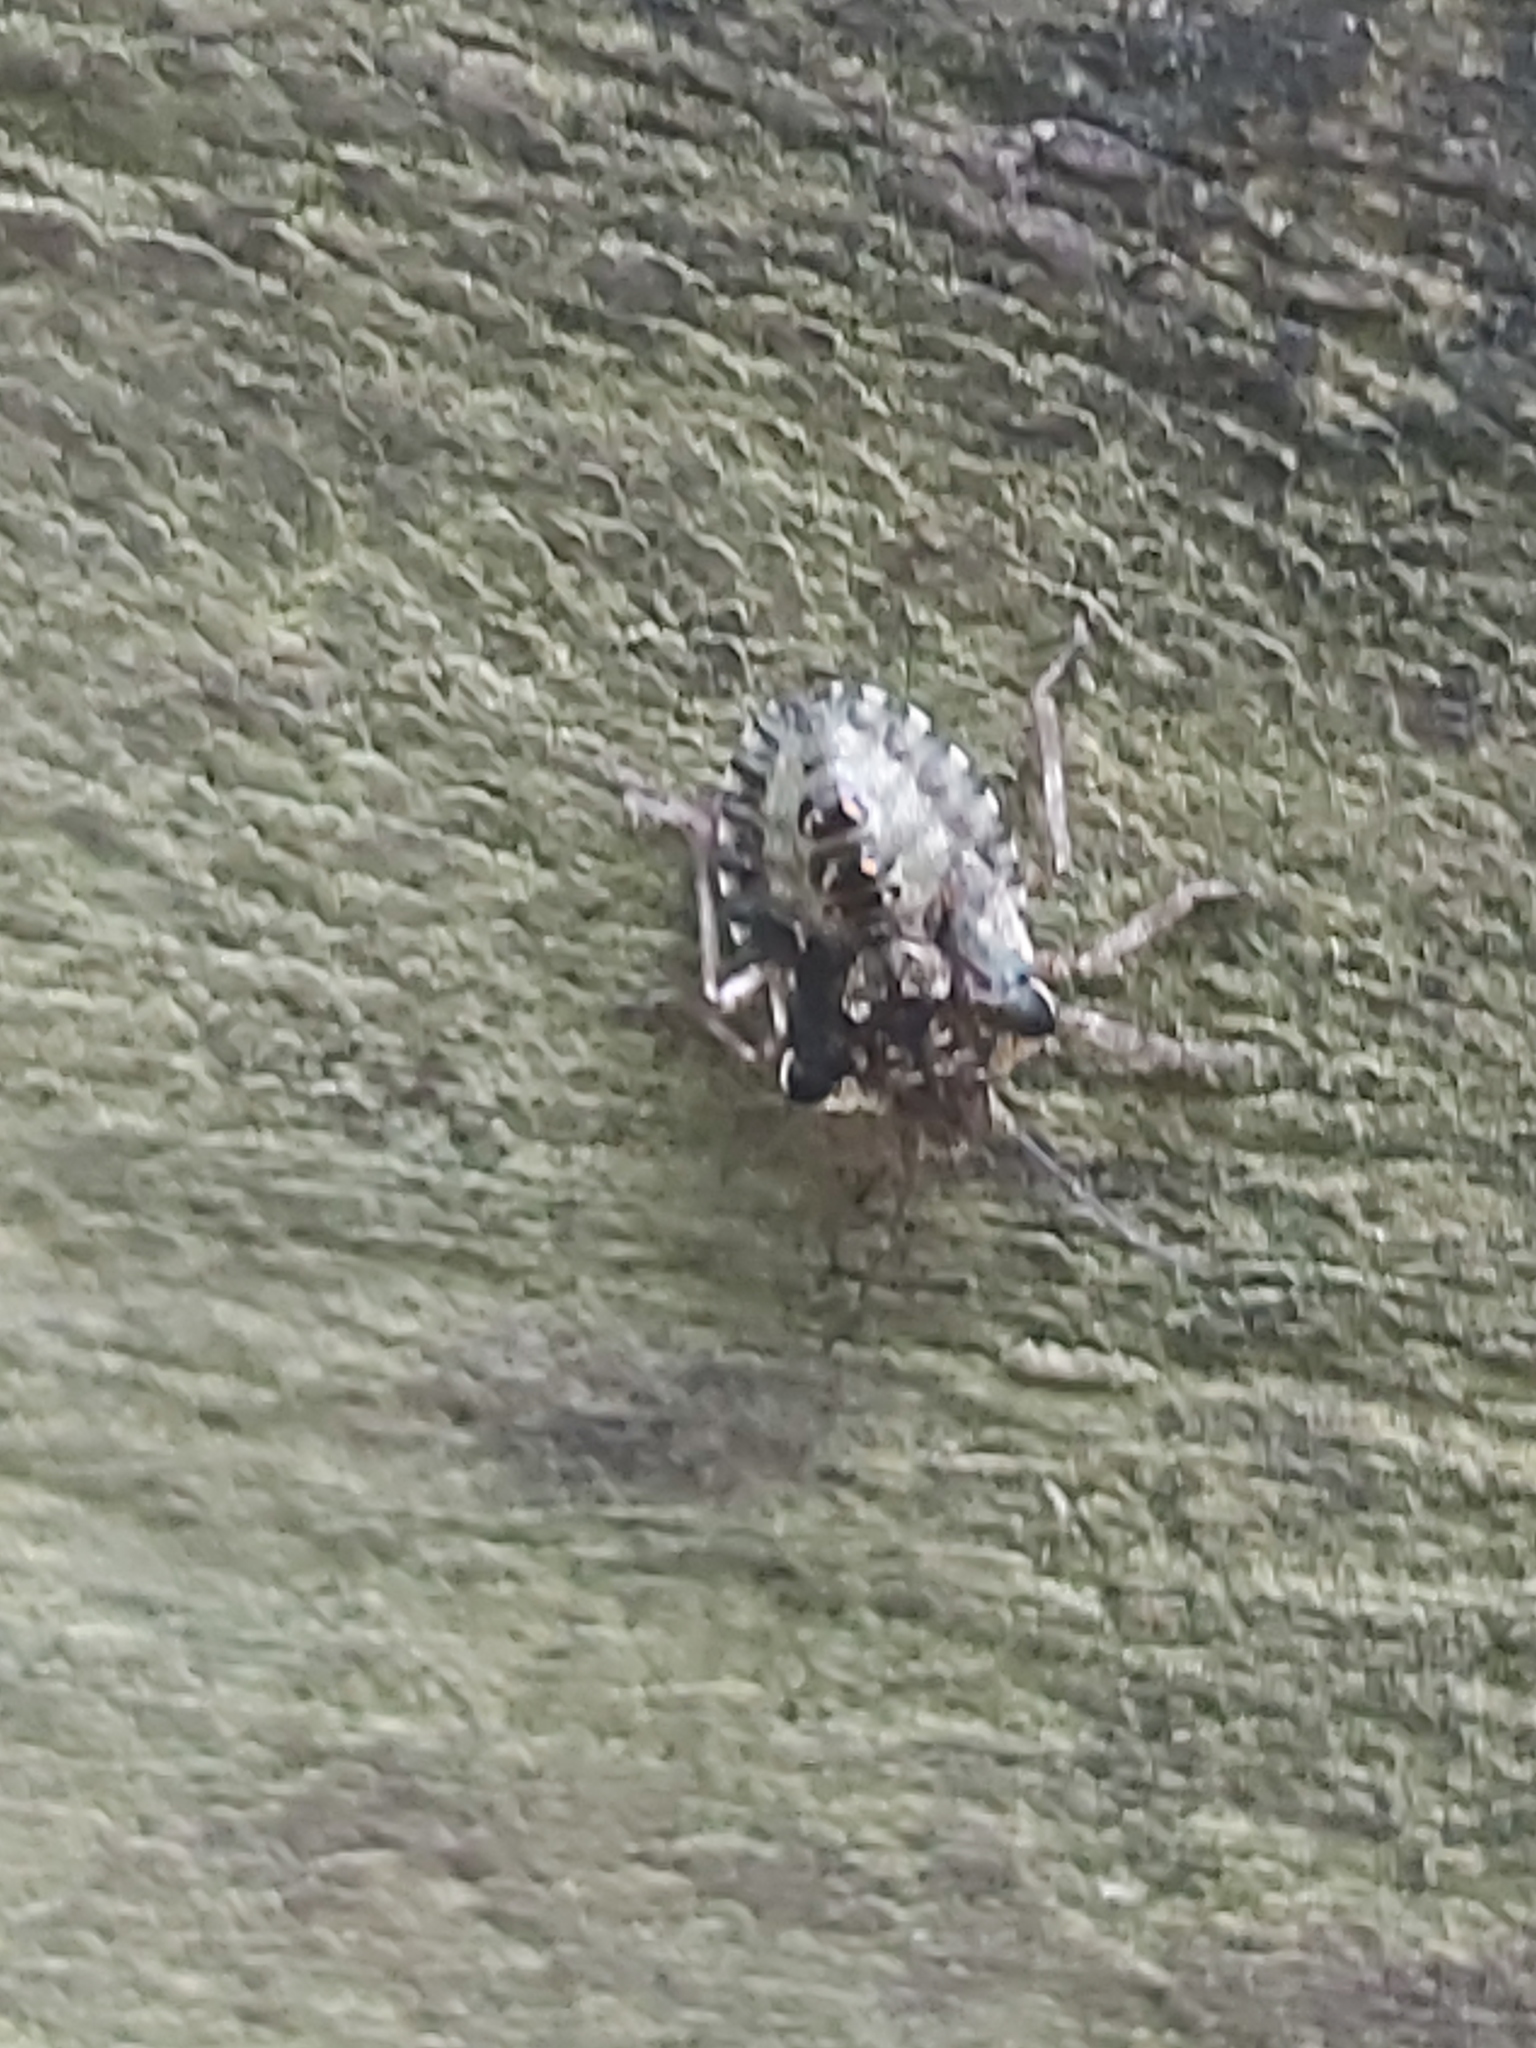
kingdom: Animalia
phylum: Arthropoda
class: Insecta
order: Hemiptera
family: Pentatomidae
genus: Pentatoma
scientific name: Pentatoma rufipes
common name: Forest bug
